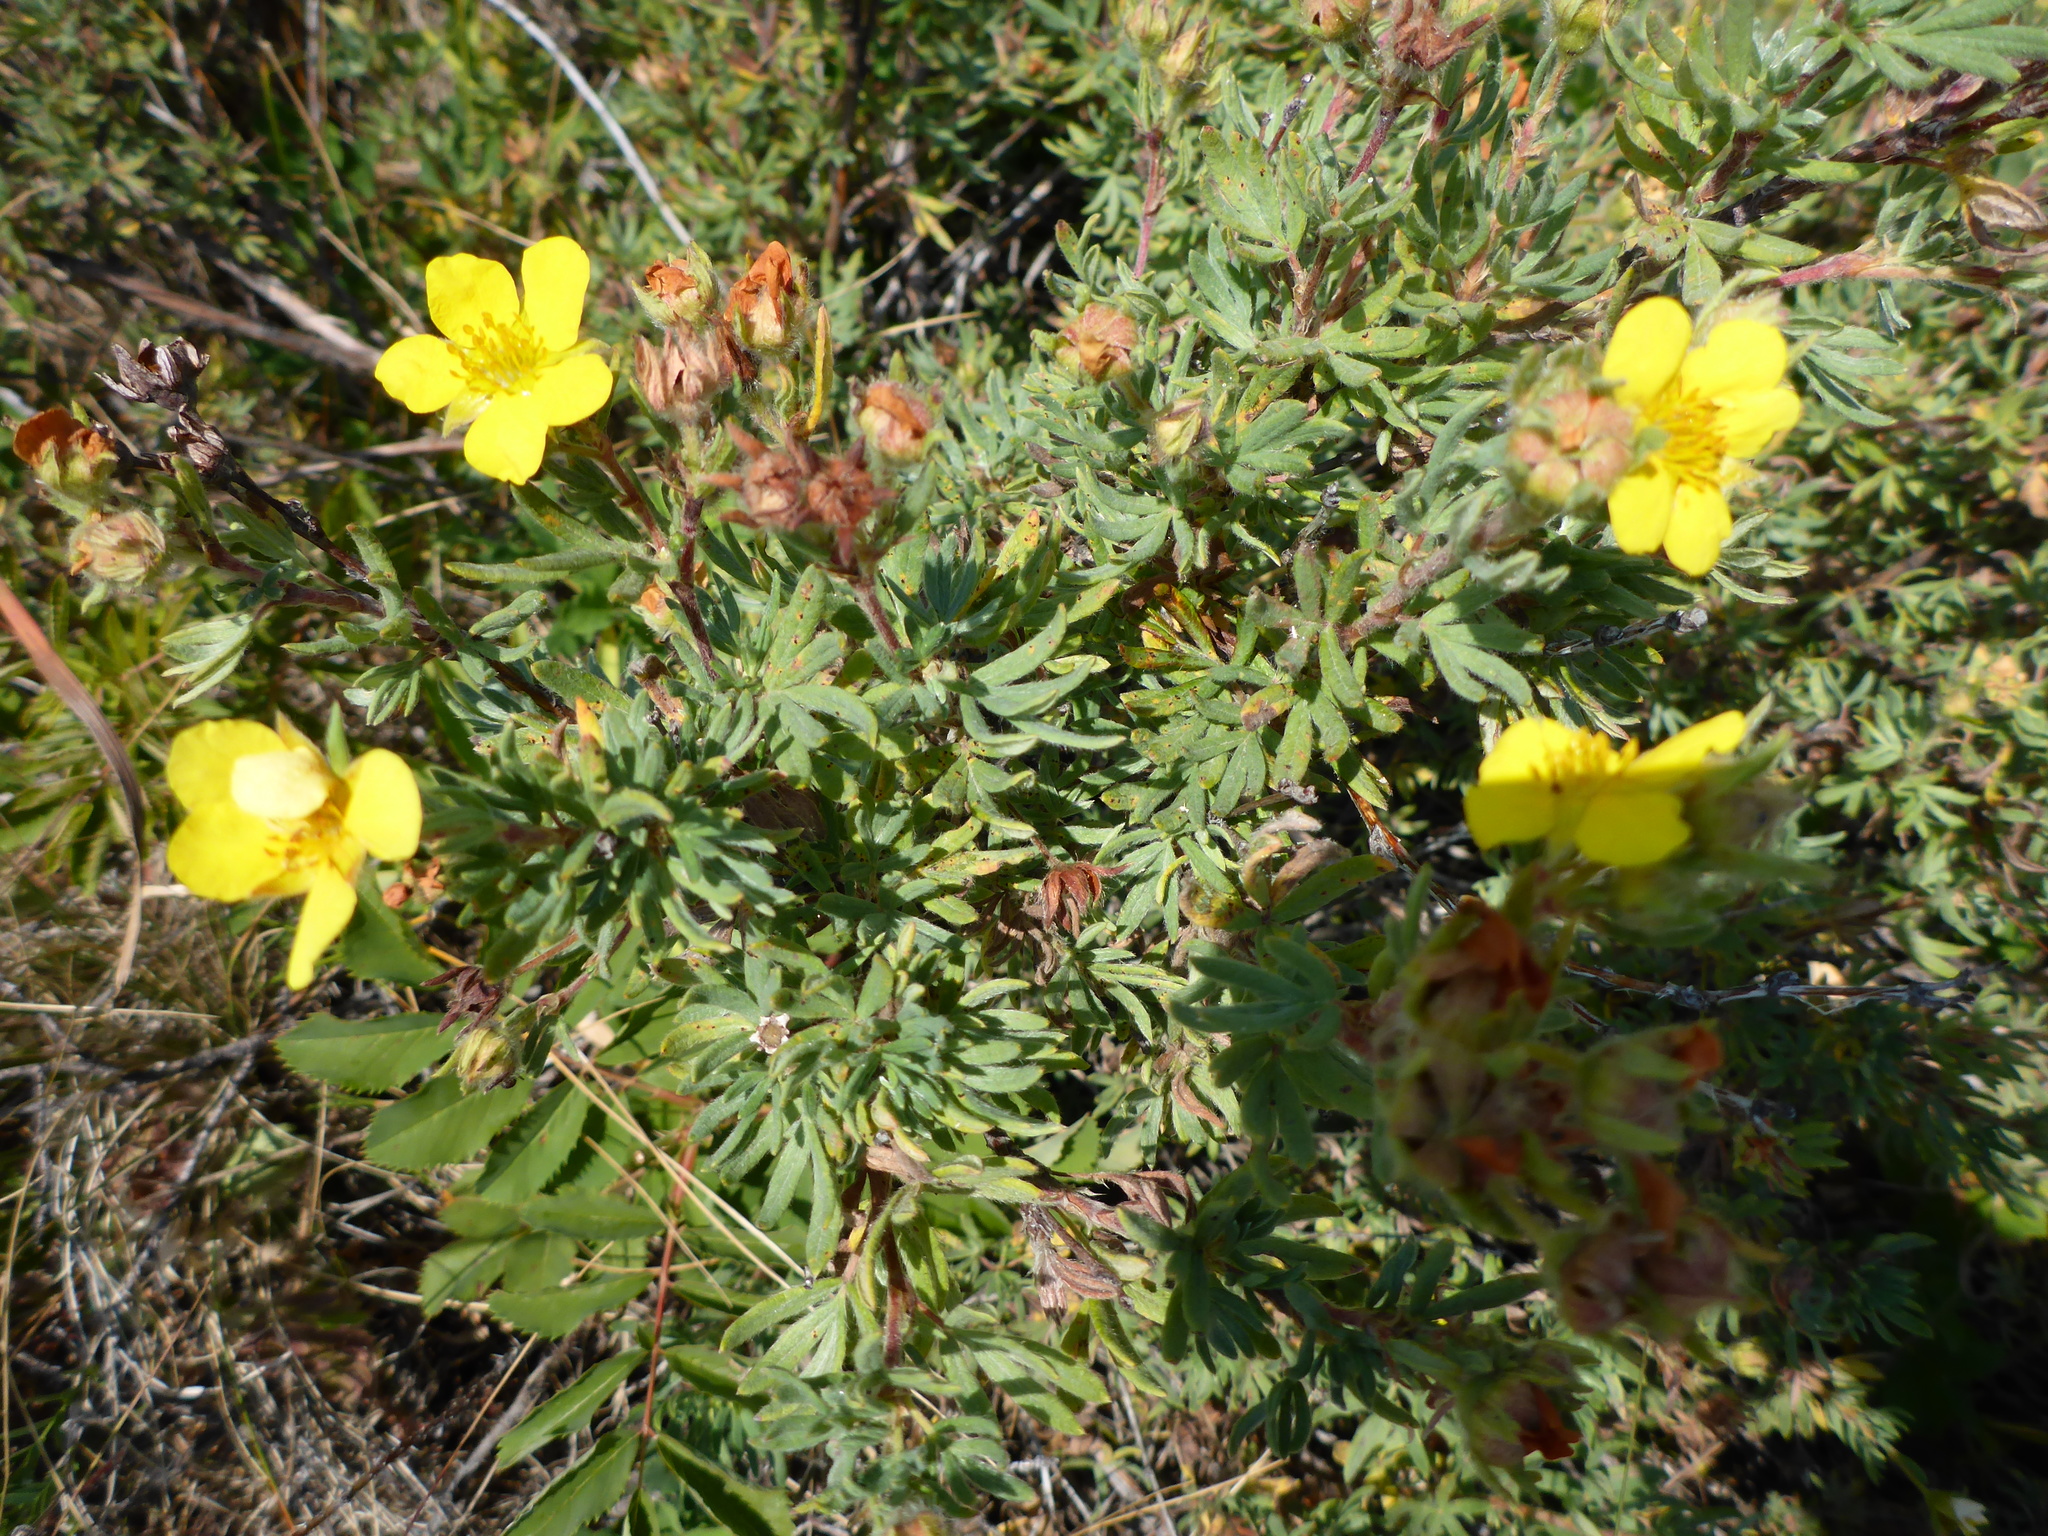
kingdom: Plantae
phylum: Tracheophyta
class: Magnoliopsida
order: Rosales
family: Rosaceae
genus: Dasiphora
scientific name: Dasiphora fruticosa
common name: Shrubby cinquefoil
